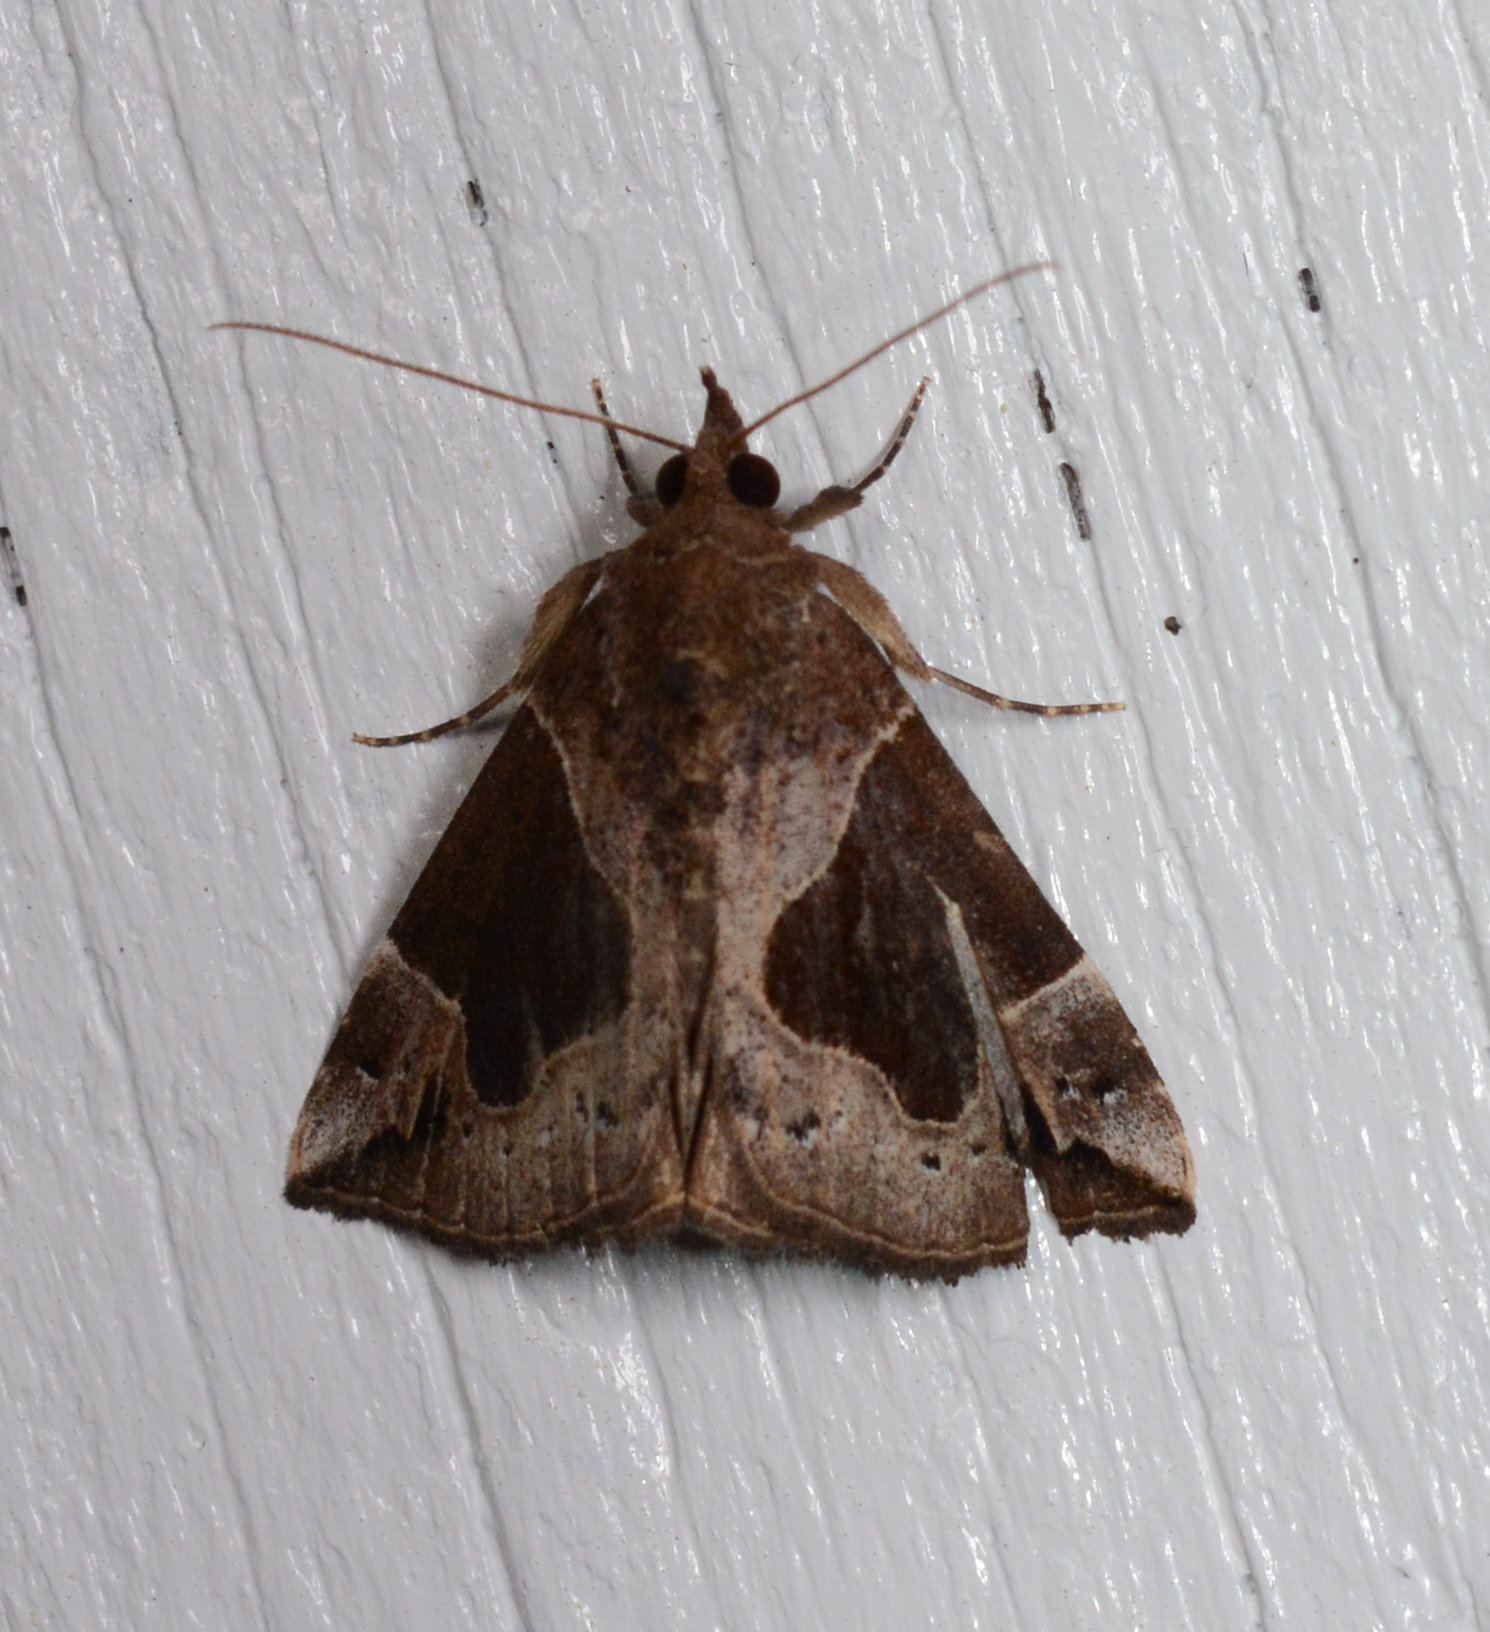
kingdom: Animalia
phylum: Arthropoda
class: Insecta
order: Lepidoptera
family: Erebidae
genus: Hypena
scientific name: Hypena manalis
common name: Flowing-line bomolocha moth
